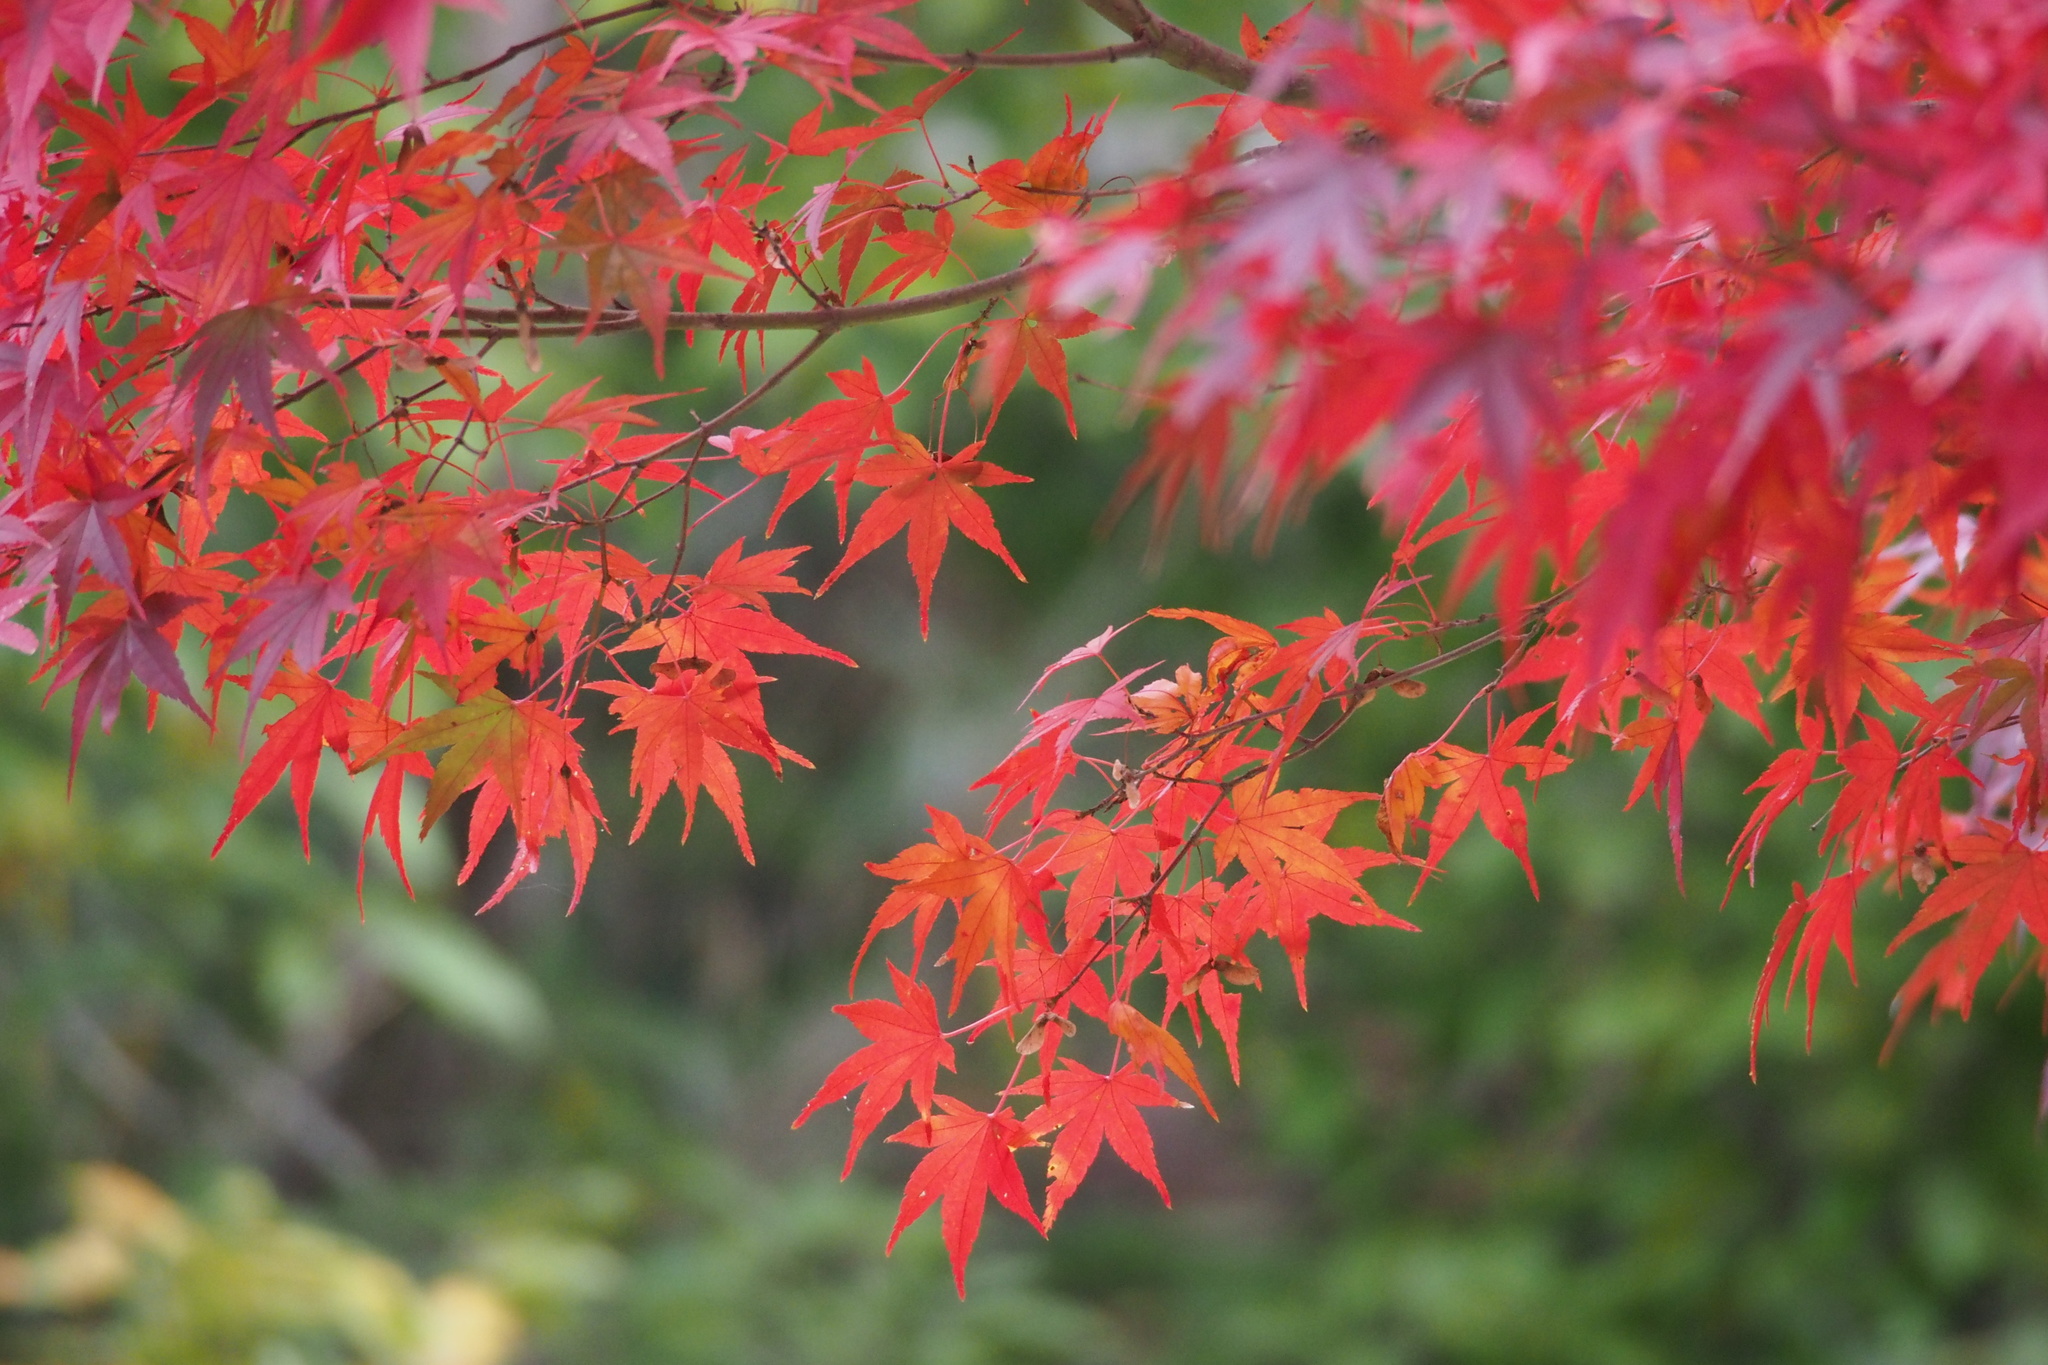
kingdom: Plantae
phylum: Tracheophyta
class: Magnoliopsida
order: Sapindales
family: Sapindaceae
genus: Acer
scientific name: Acer palmatum
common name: Japanese maple
